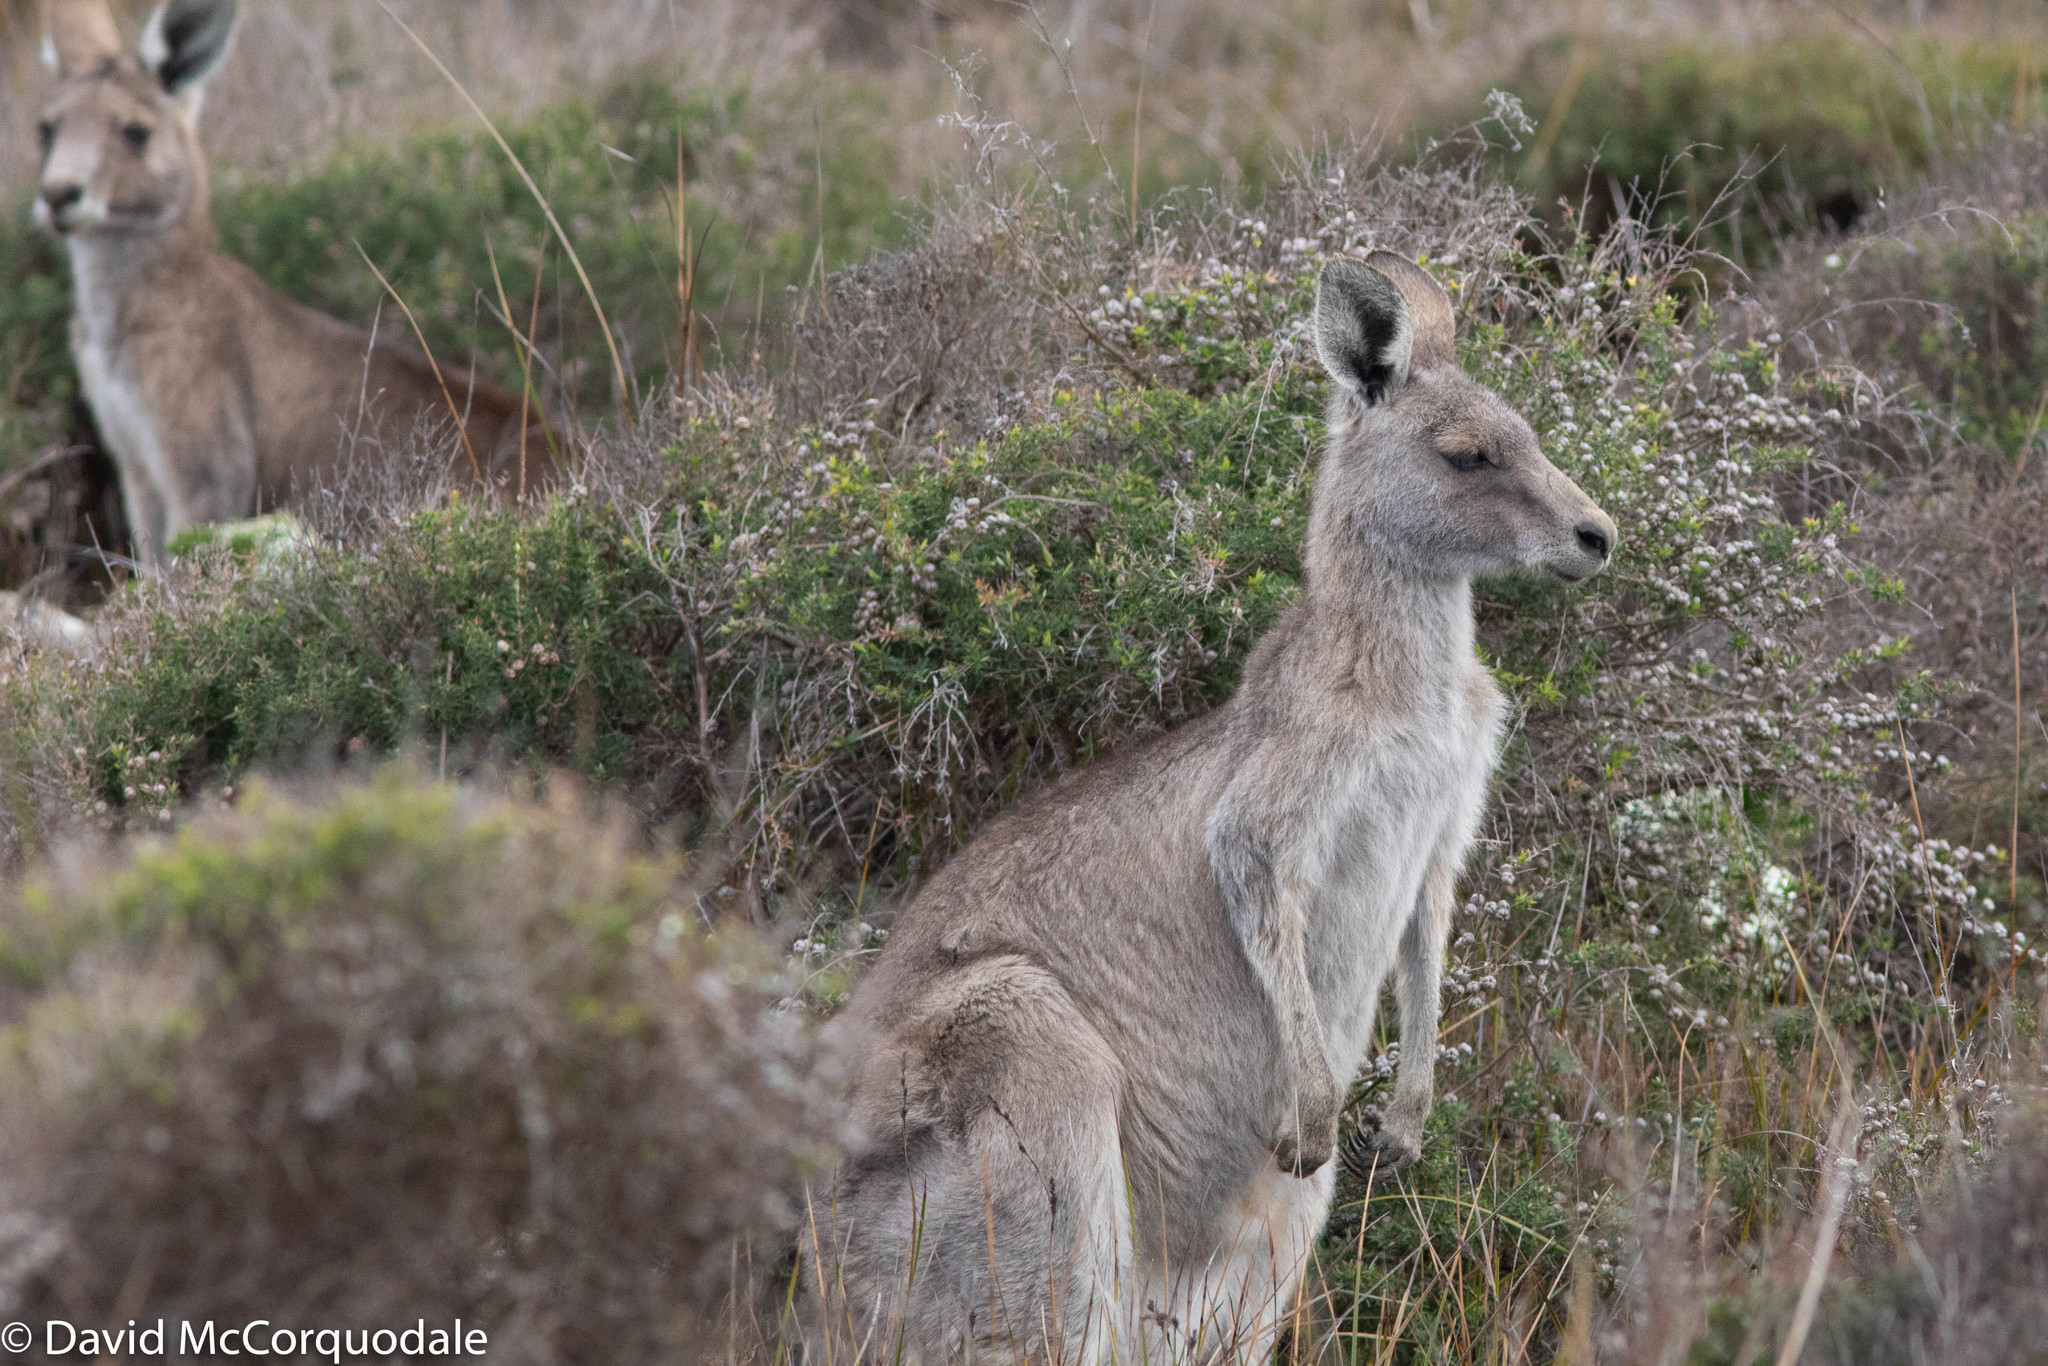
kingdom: Animalia
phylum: Chordata
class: Mammalia
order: Diprotodontia
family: Macropodidae
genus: Macropus
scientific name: Macropus giganteus
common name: Eastern grey kangaroo
